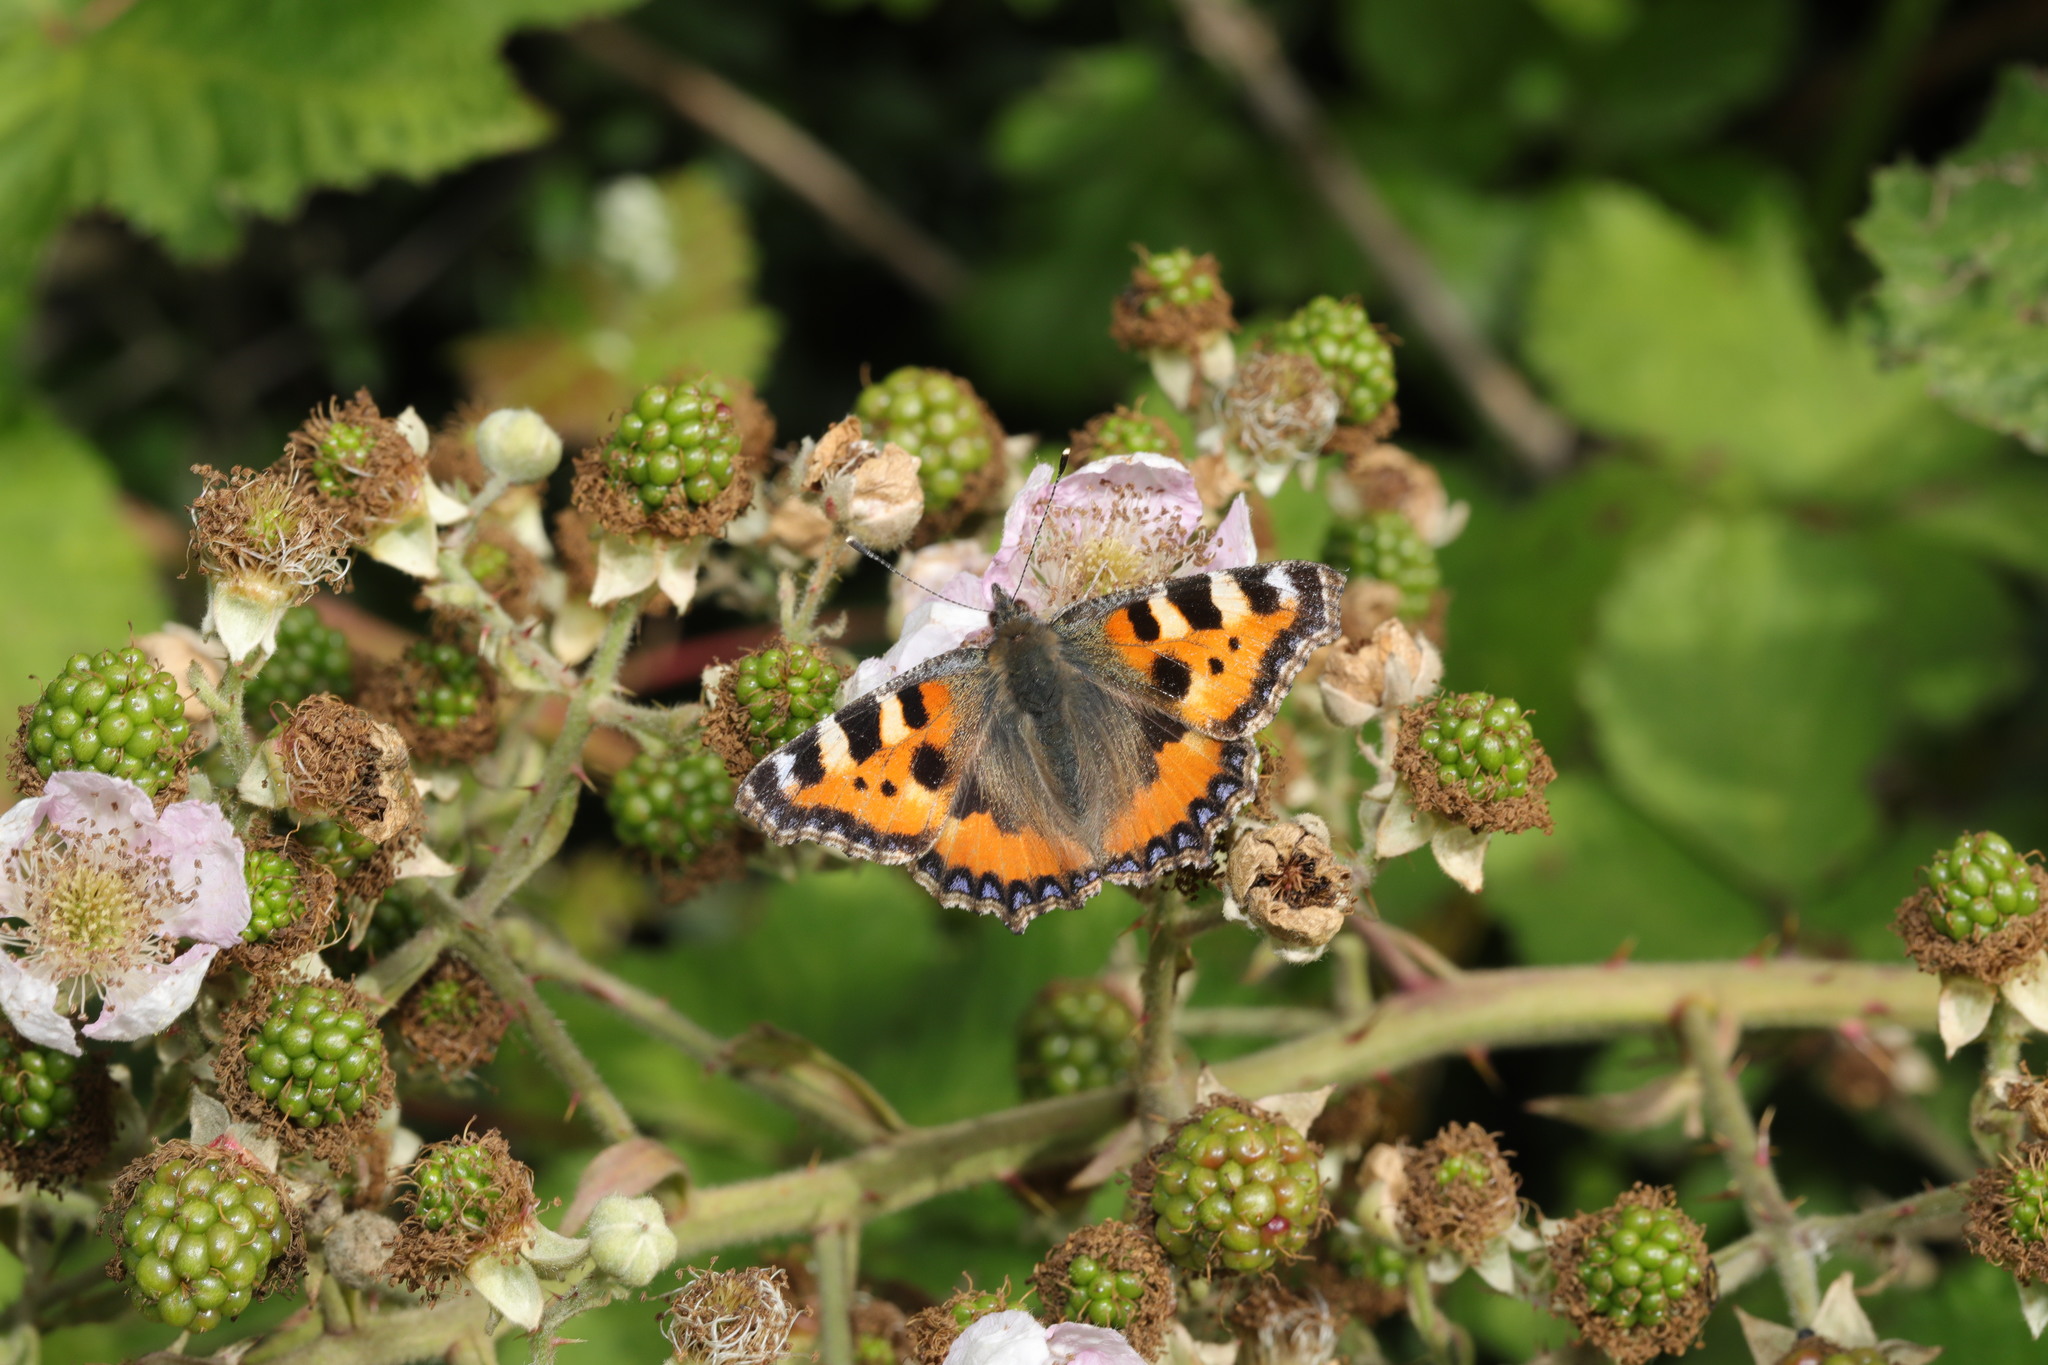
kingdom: Animalia
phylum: Arthropoda
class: Insecta
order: Lepidoptera
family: Nymphalidae
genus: Aglais
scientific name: Aglais urticae
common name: Small tortoiseshell
